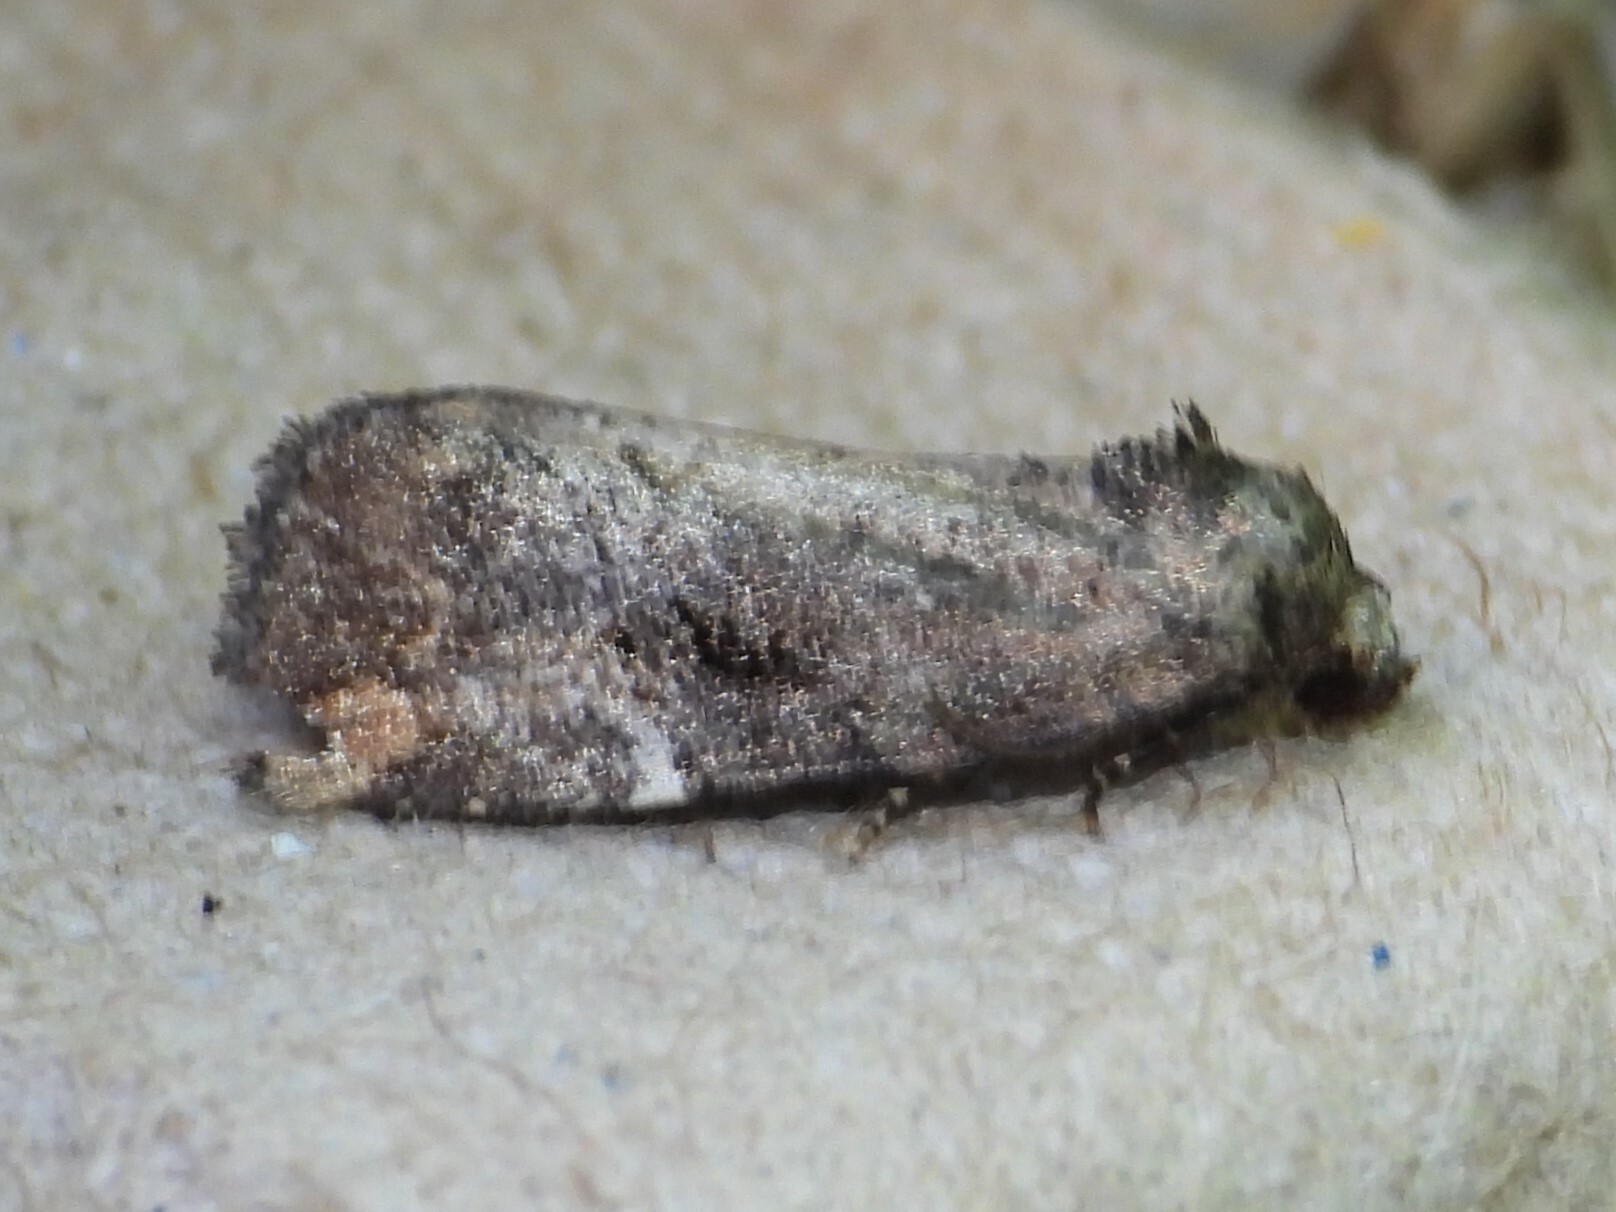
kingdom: Animalia
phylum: Arthropoda
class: Insecta
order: Lepidoptera
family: Noctuidae
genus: Elaphria
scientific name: Elaphria versicolor
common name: Fir harlequin
